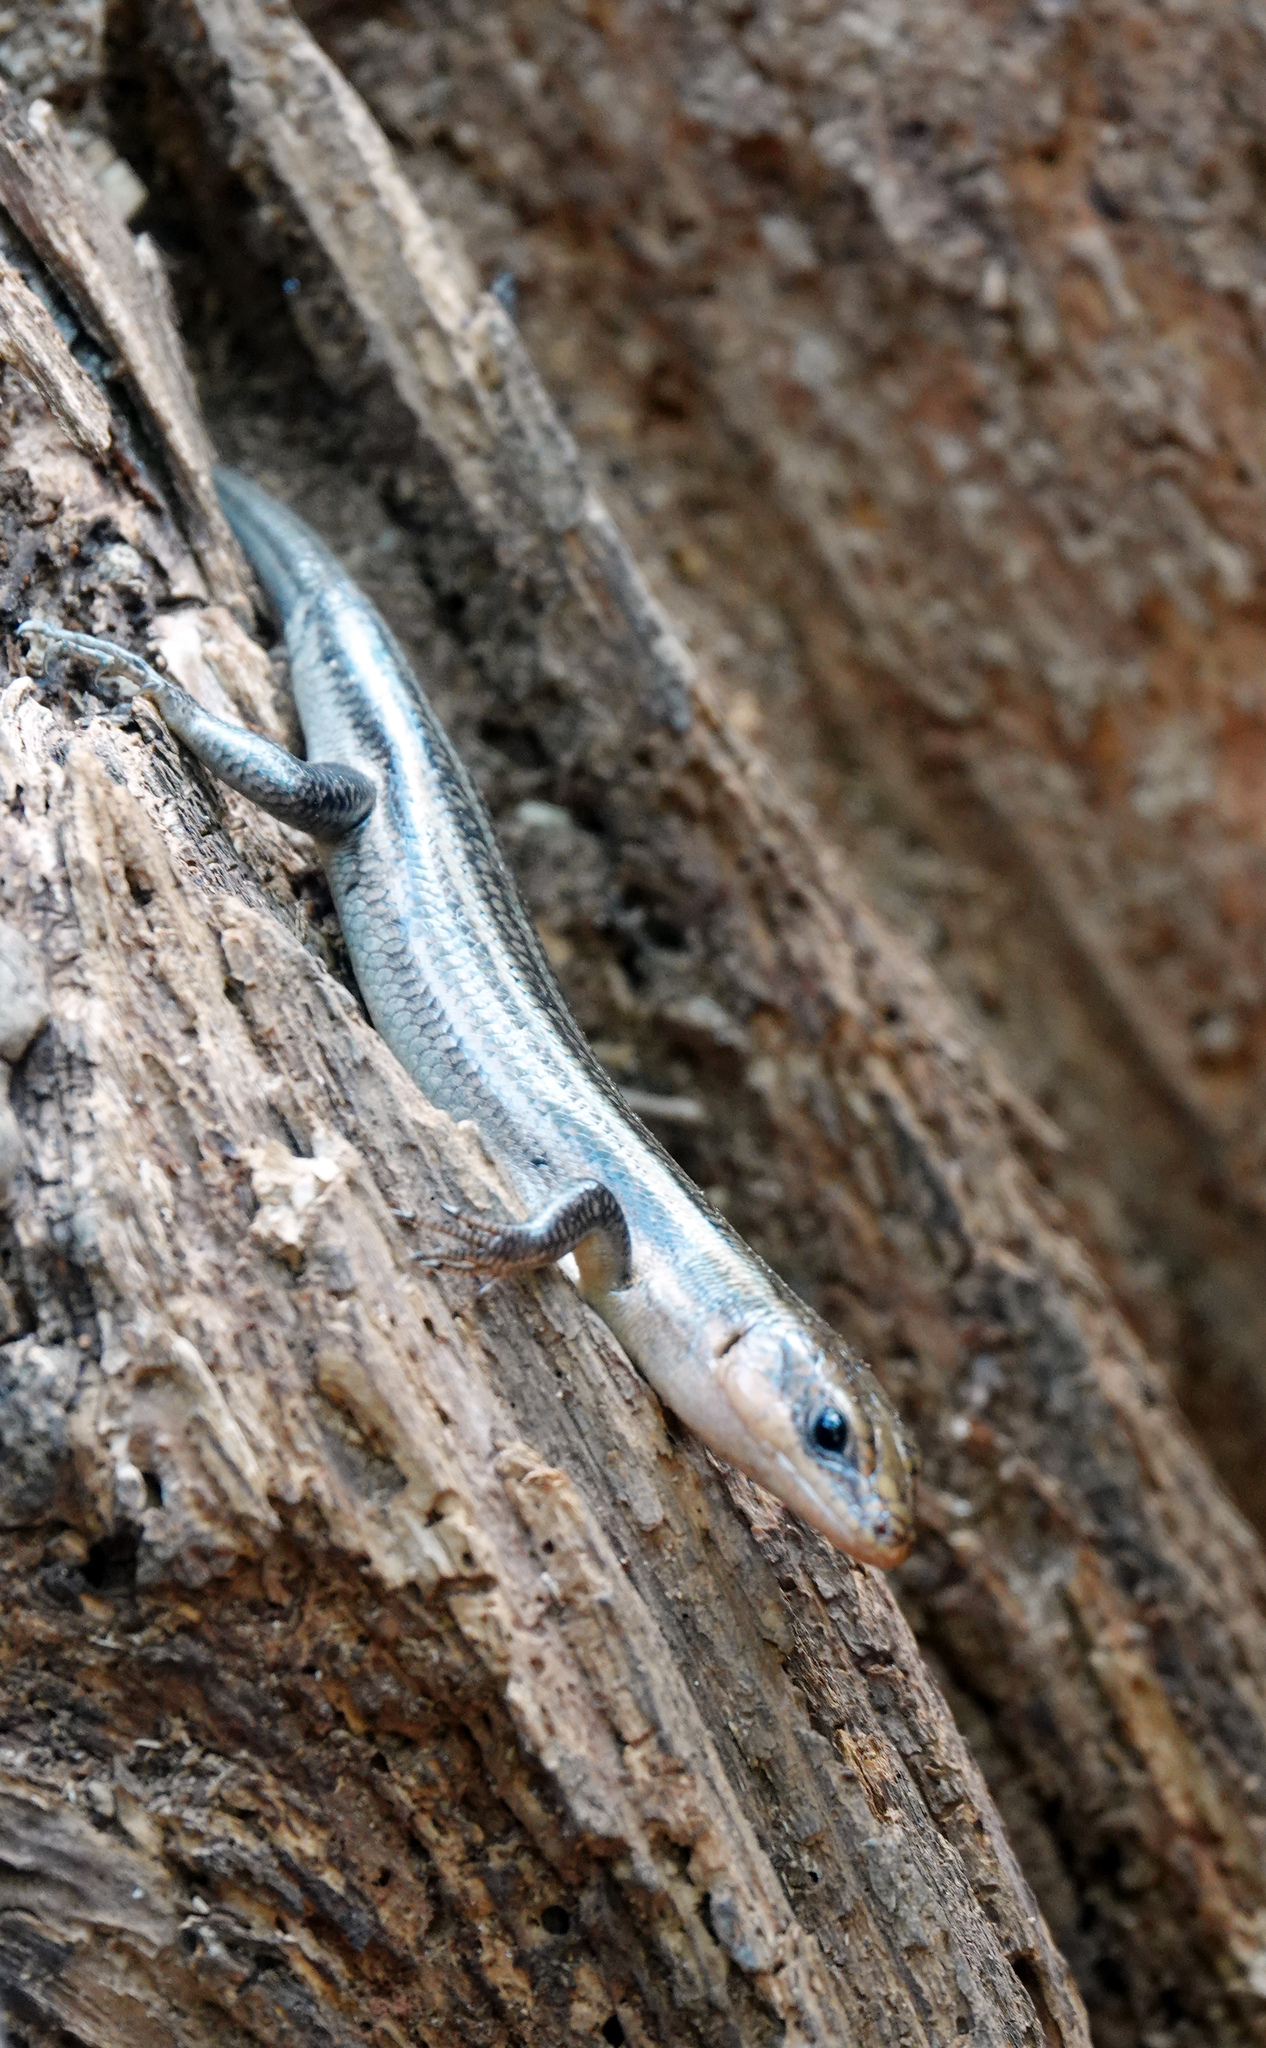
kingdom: Animalia
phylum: Chordata
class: Squamata
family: Scincidae
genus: Plestiodon
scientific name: Plestiodon fasciatus
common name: Five-lined skink
